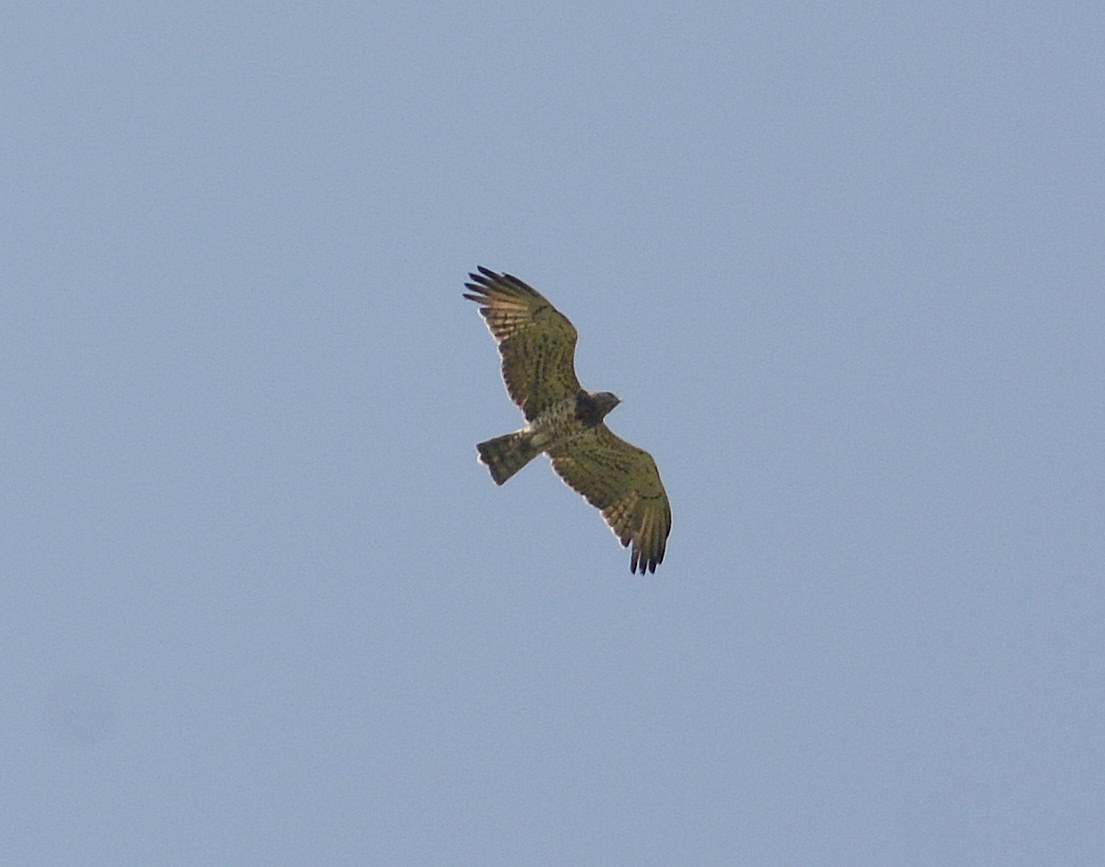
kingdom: Animalia
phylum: Chordata
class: Aves
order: Accipitriformes
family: Accipitridae
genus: Circaetus
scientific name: Circaetus gallicus
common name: Short-toed snake eagle
